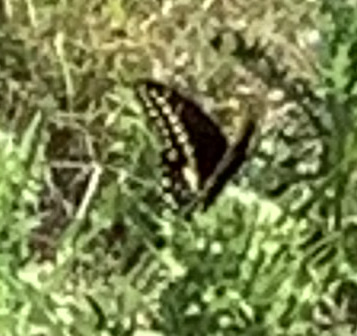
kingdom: Animalia
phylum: Arthropoda
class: Insecta
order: Lepidoptera
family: Papilionidae
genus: Papilio
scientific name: Papilio polyxenes
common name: Black swallowtail
